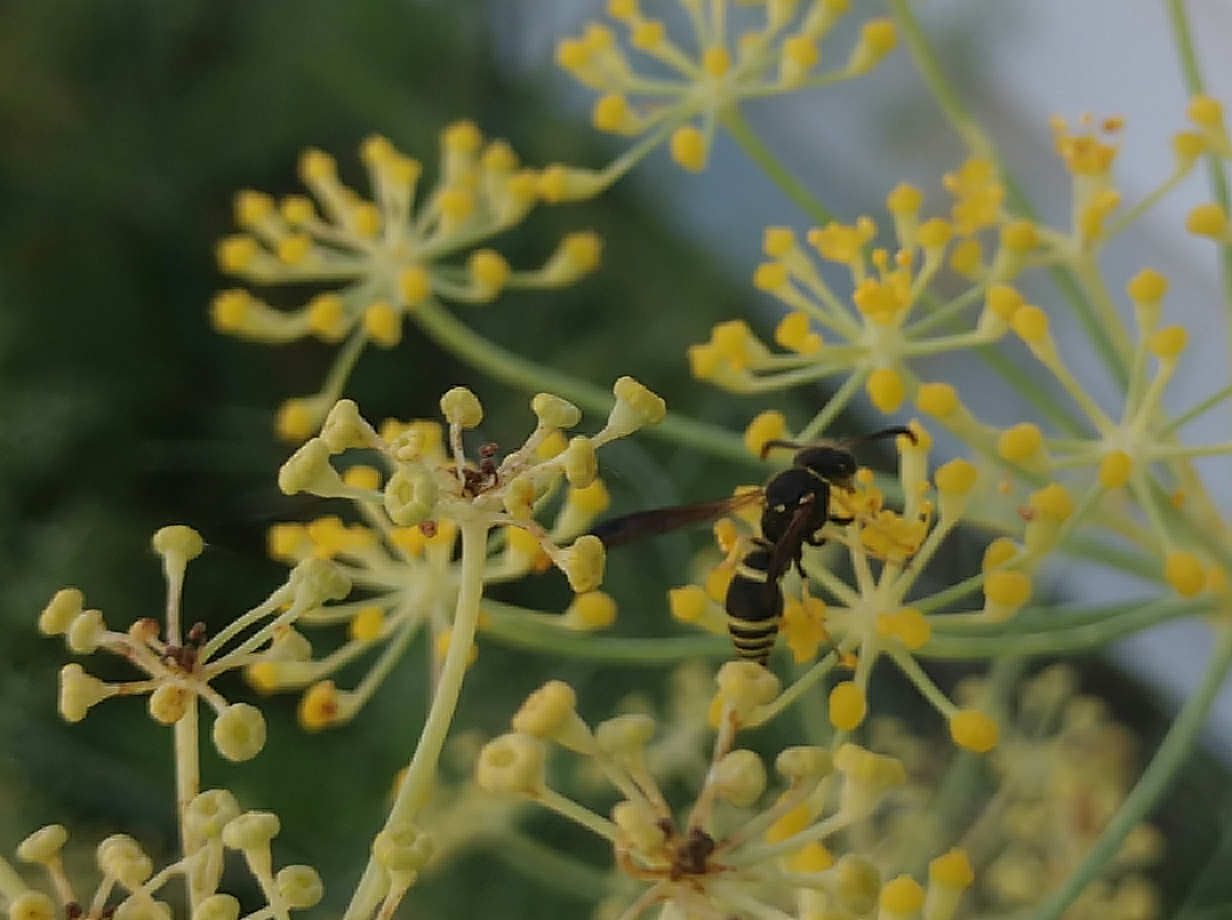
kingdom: Animalia
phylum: Arthropoda
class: Insecta
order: Hymenoptera
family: Vespidae
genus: Ancistrocerus
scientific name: Ancistrocerus
